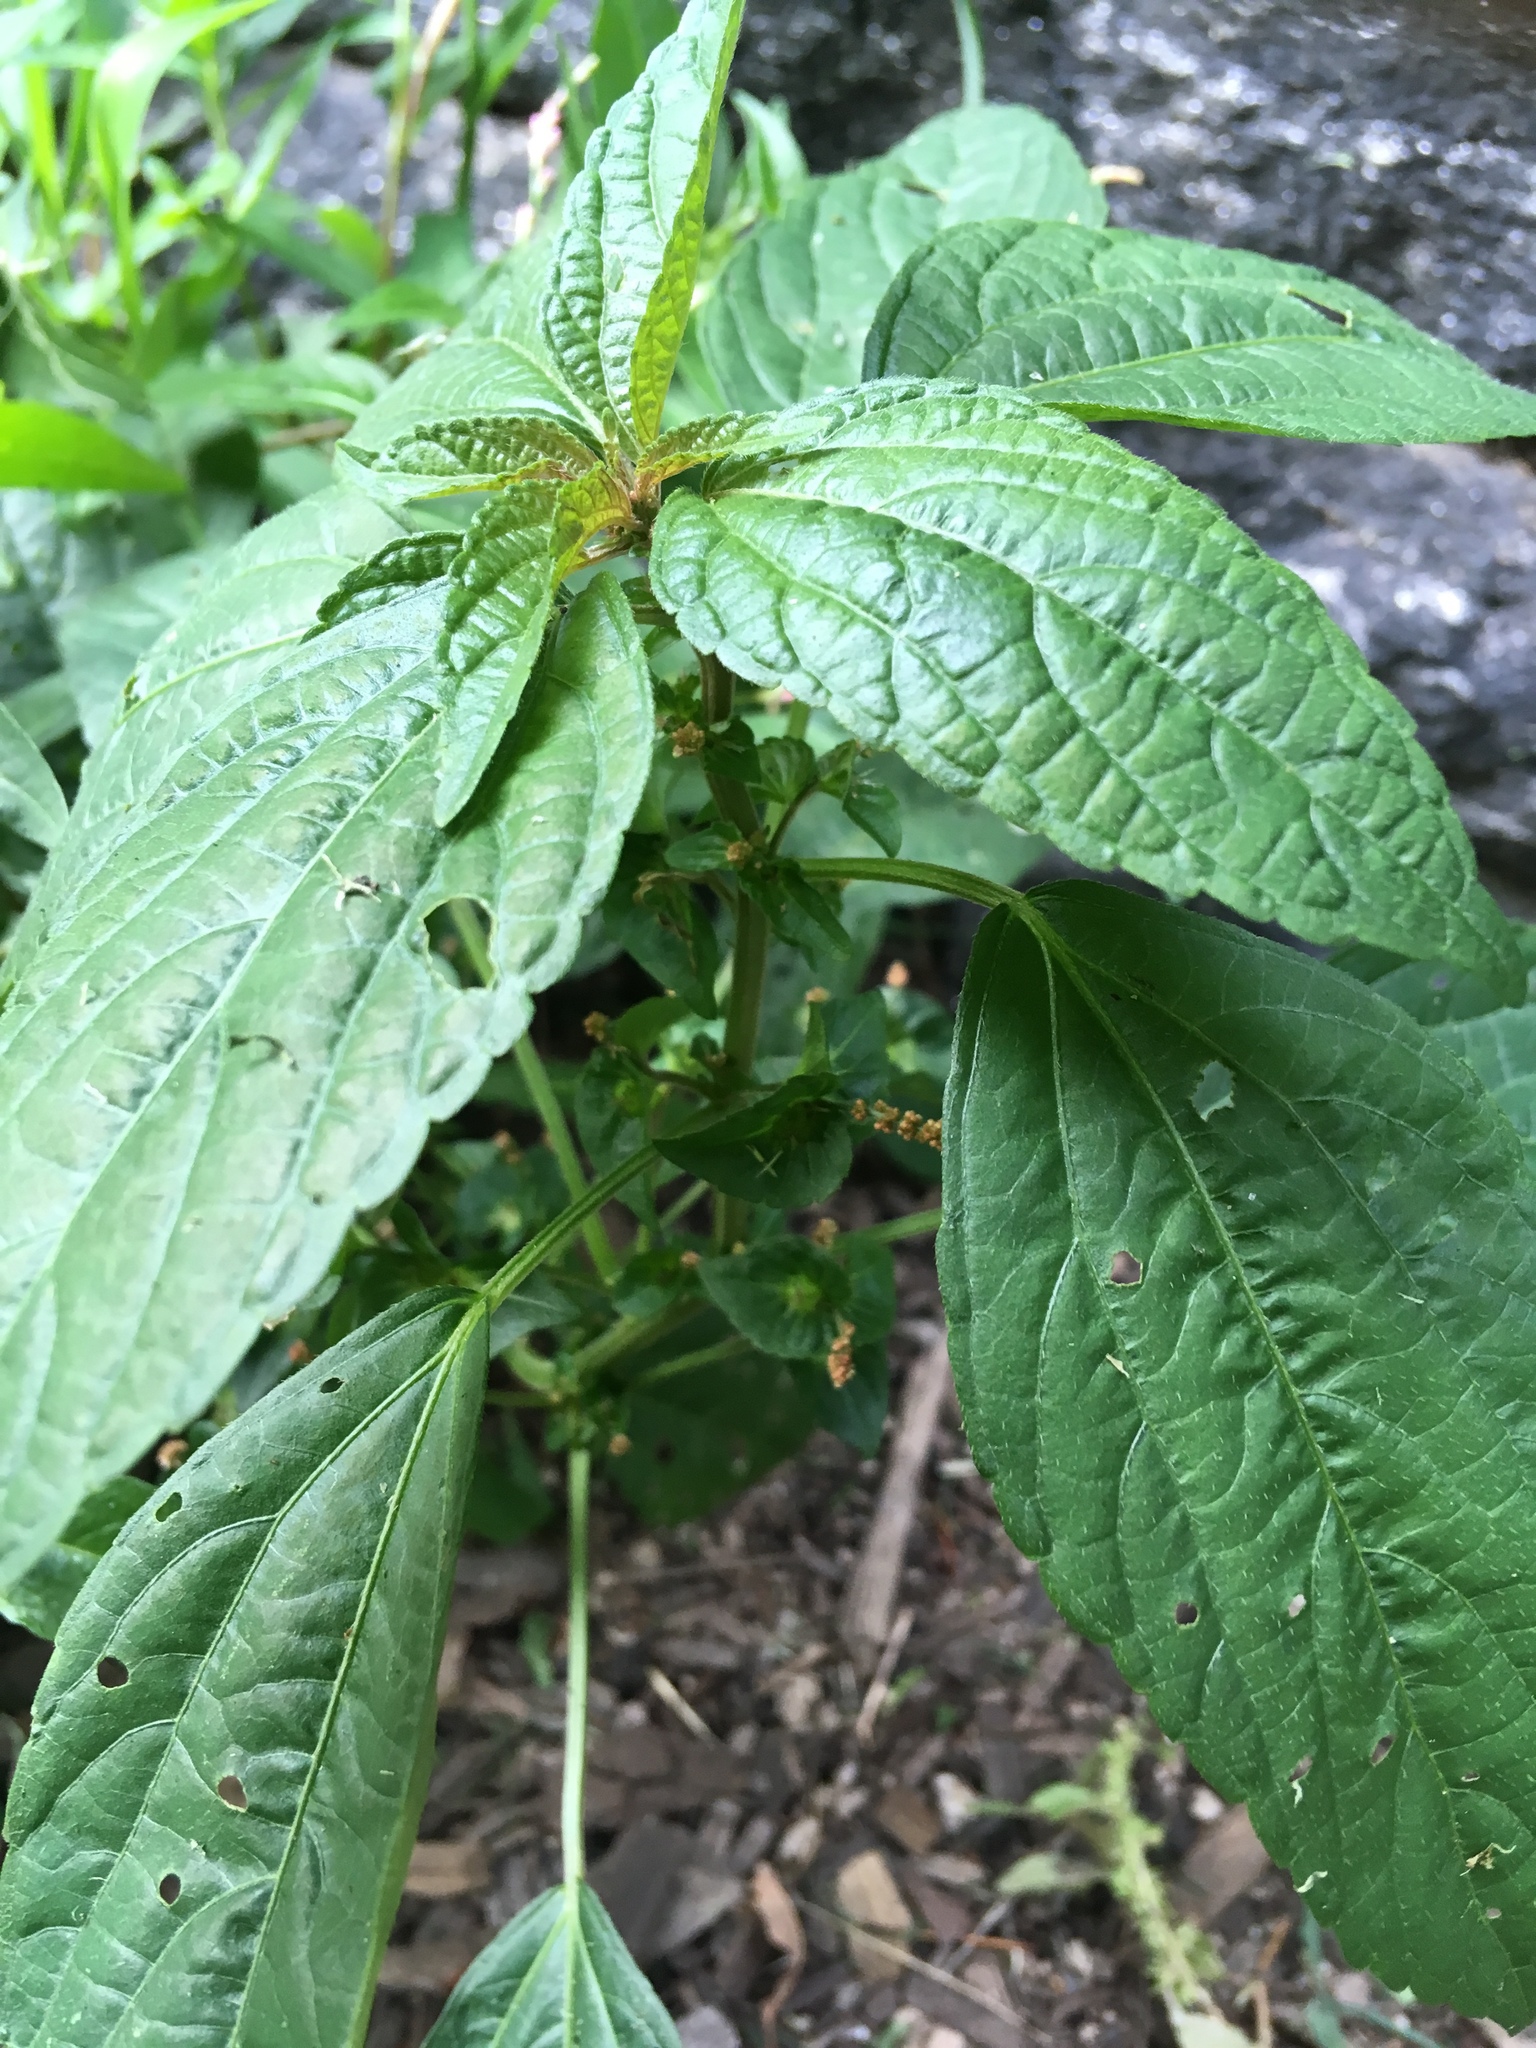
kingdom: Plantae
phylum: Tracheophyta
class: Magnoliopsida
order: Malpighiales
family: Euphorbiaceae
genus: Acalypha
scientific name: Acalypha australis
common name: Asian copperleaf
